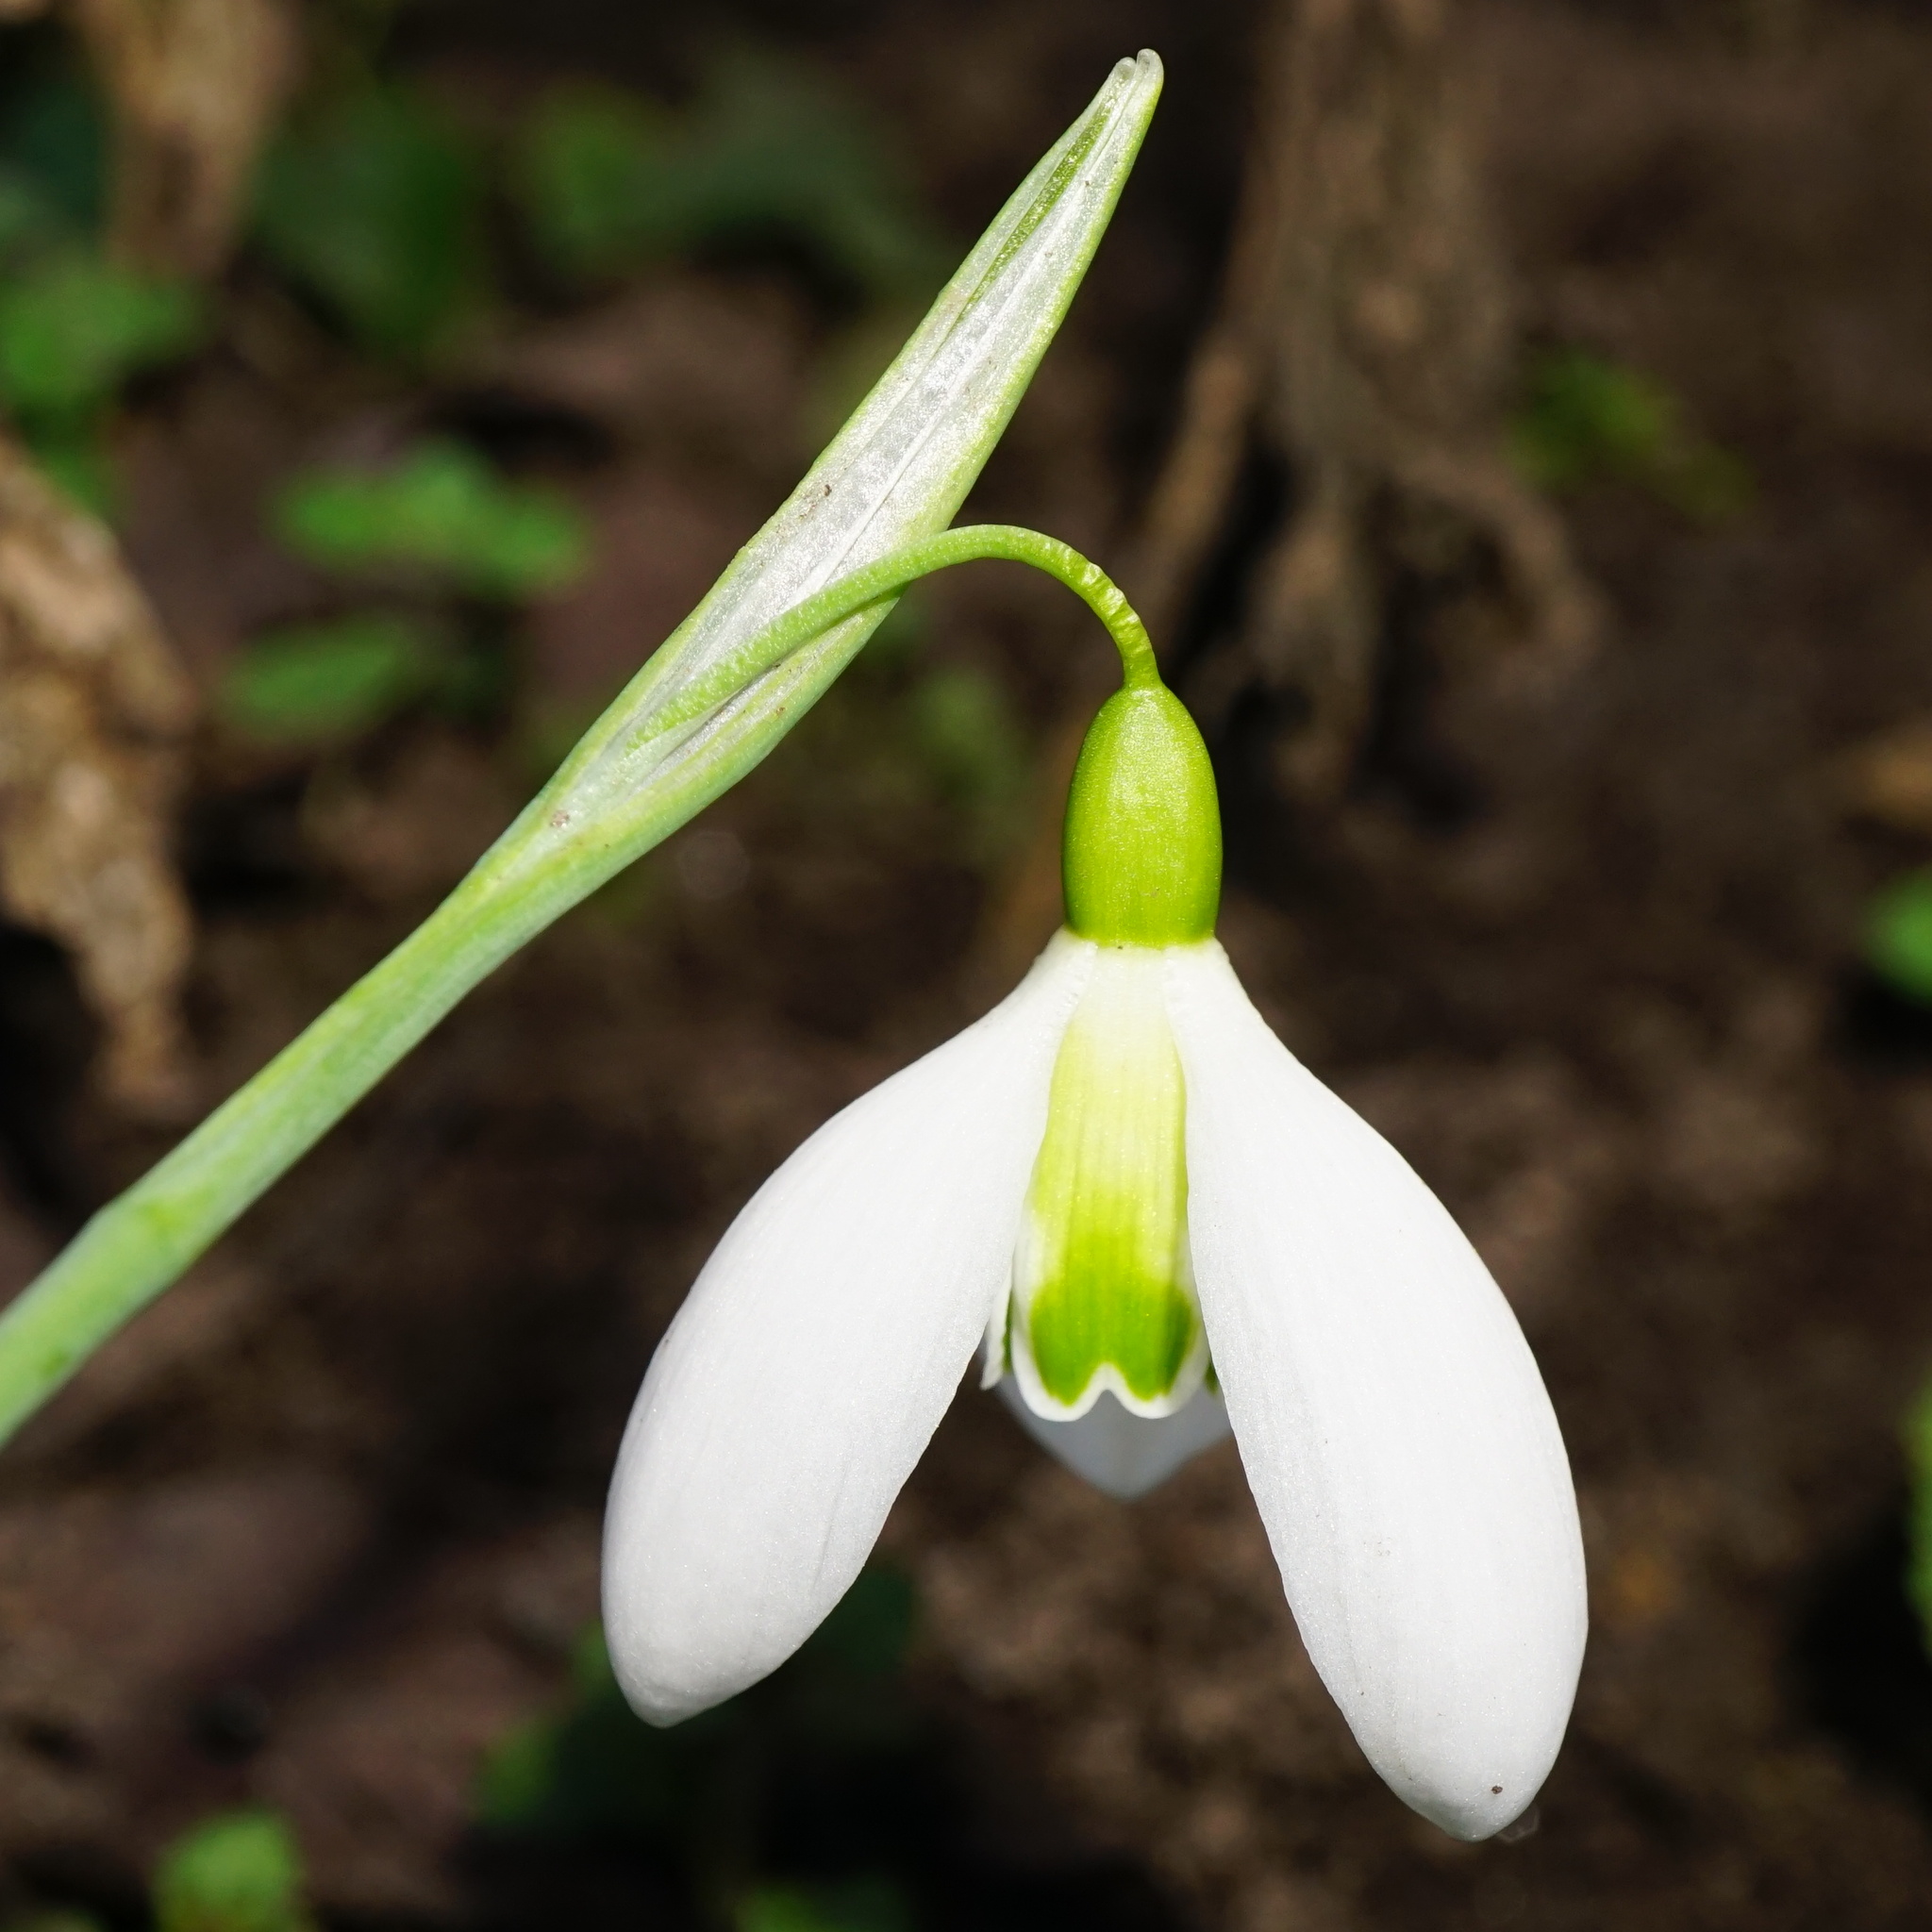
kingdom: Plantae
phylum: Tracheophyta
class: Liliopsida
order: Asparagales
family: Amaryllidaceae
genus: Galanthus
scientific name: Galanthus
